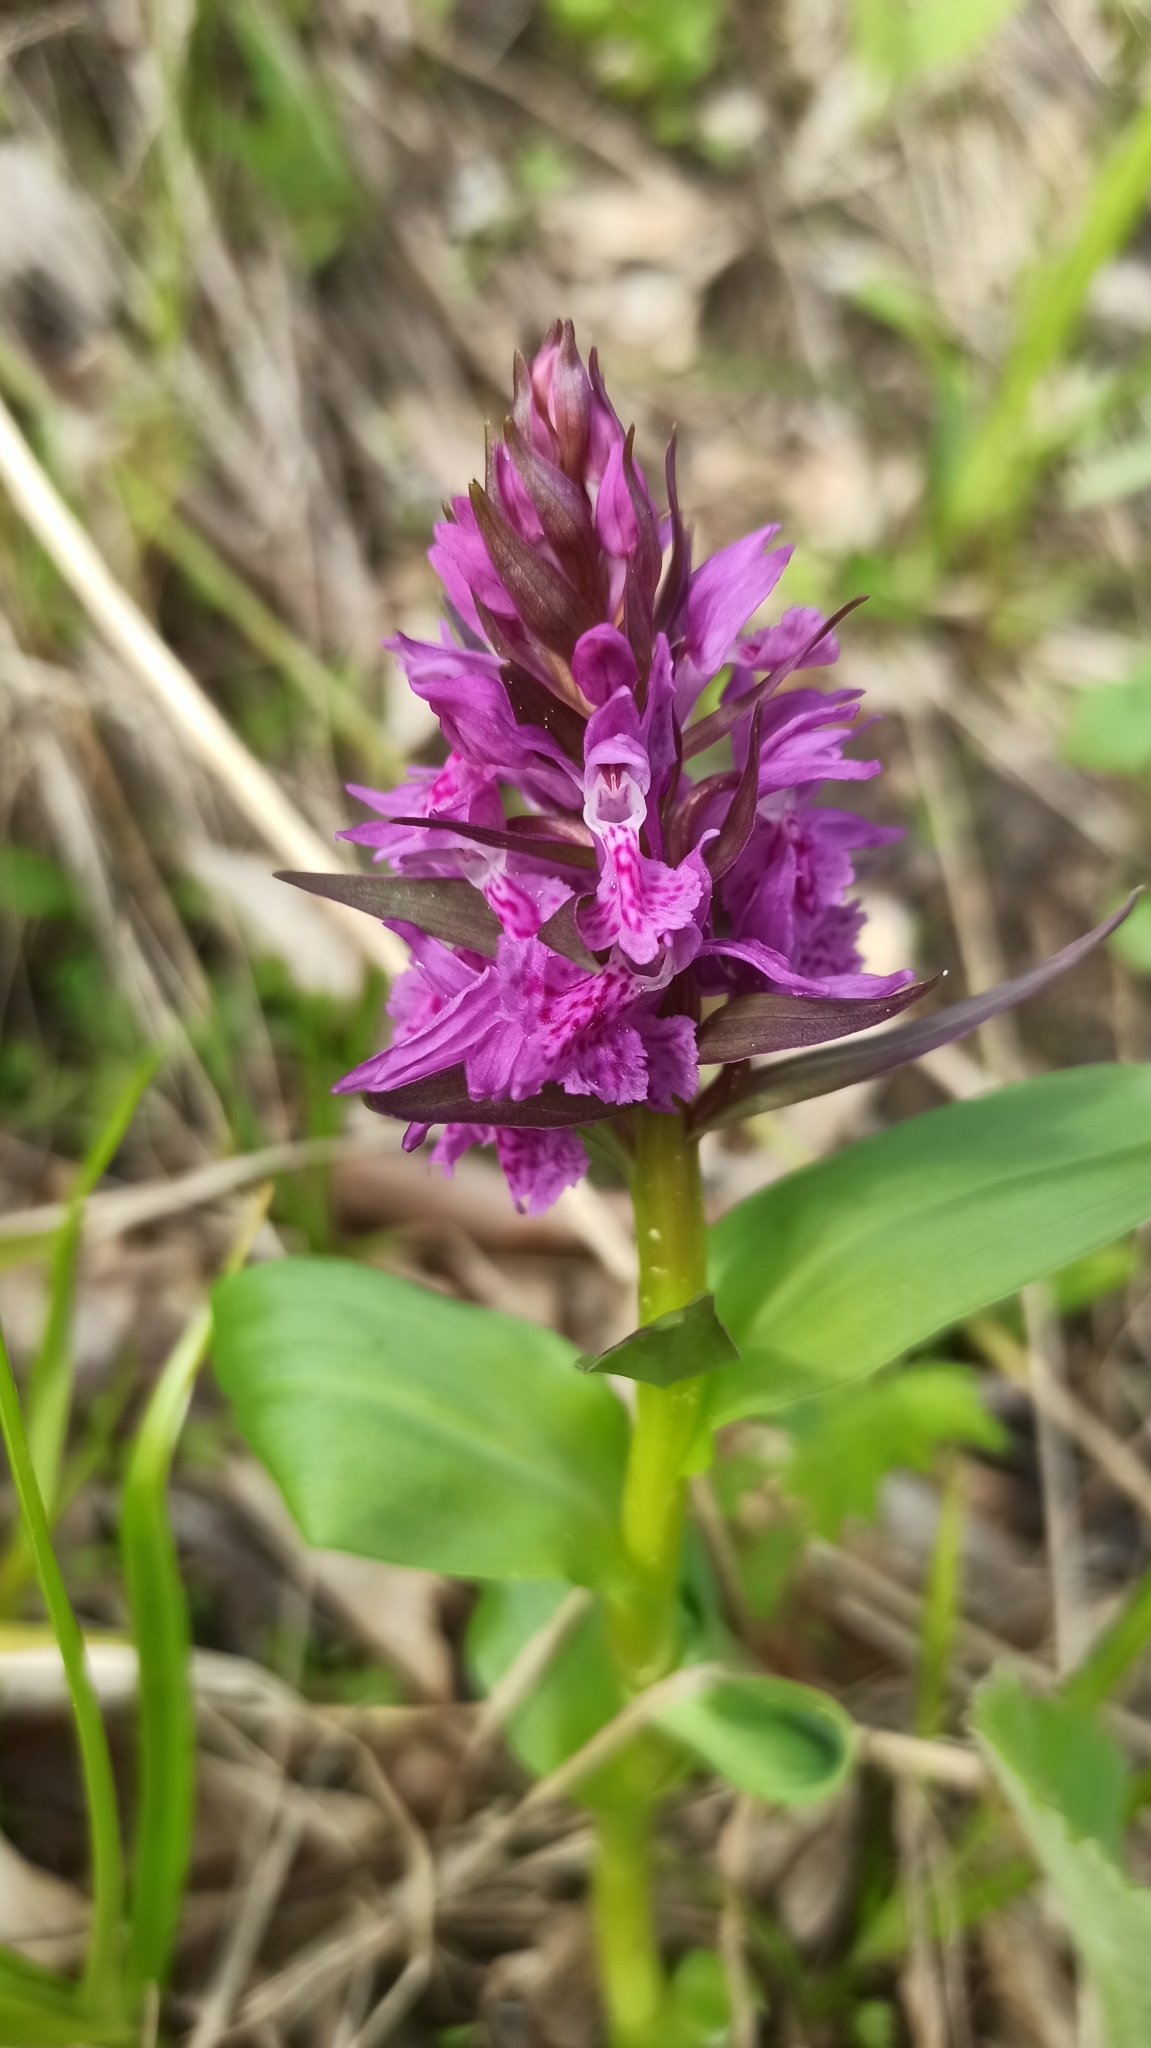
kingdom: Plantae
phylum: Tracheophyta
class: Liliopsida
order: Asparagales
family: Orchidaceae
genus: Dactylorhiza
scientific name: Dactylorhiza euxina
